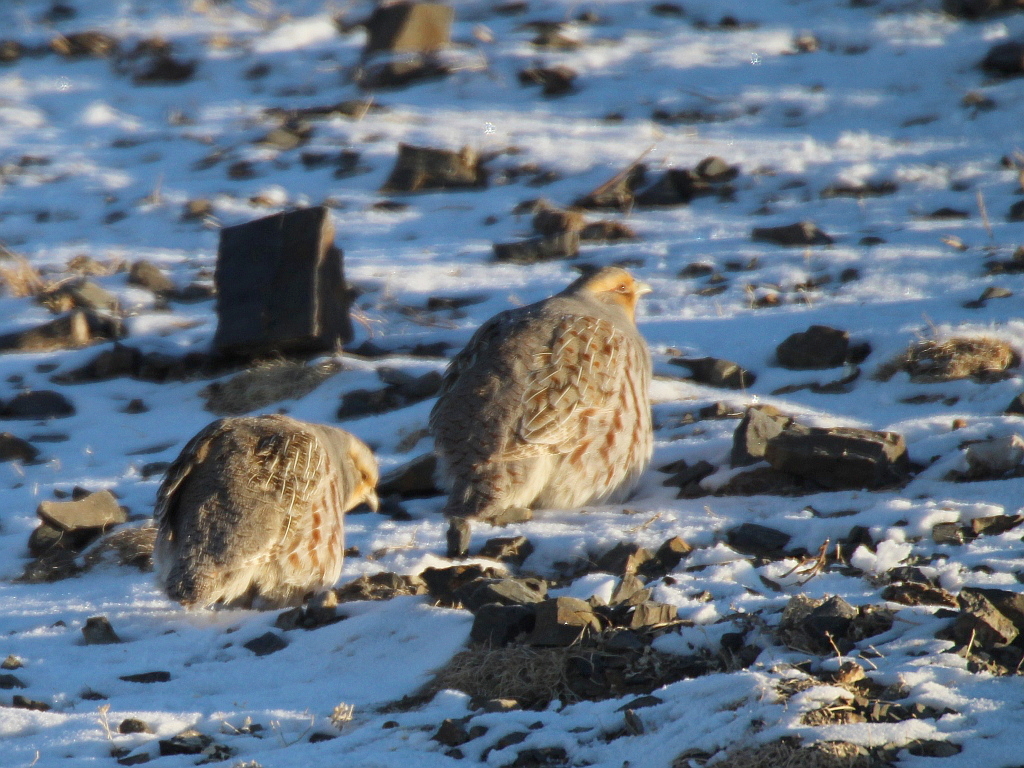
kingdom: Animalia
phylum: Chordata
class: Aves
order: Galliformes
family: Phasianidae
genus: Perdix
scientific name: Perdix dauurica
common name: Daurian partridge
